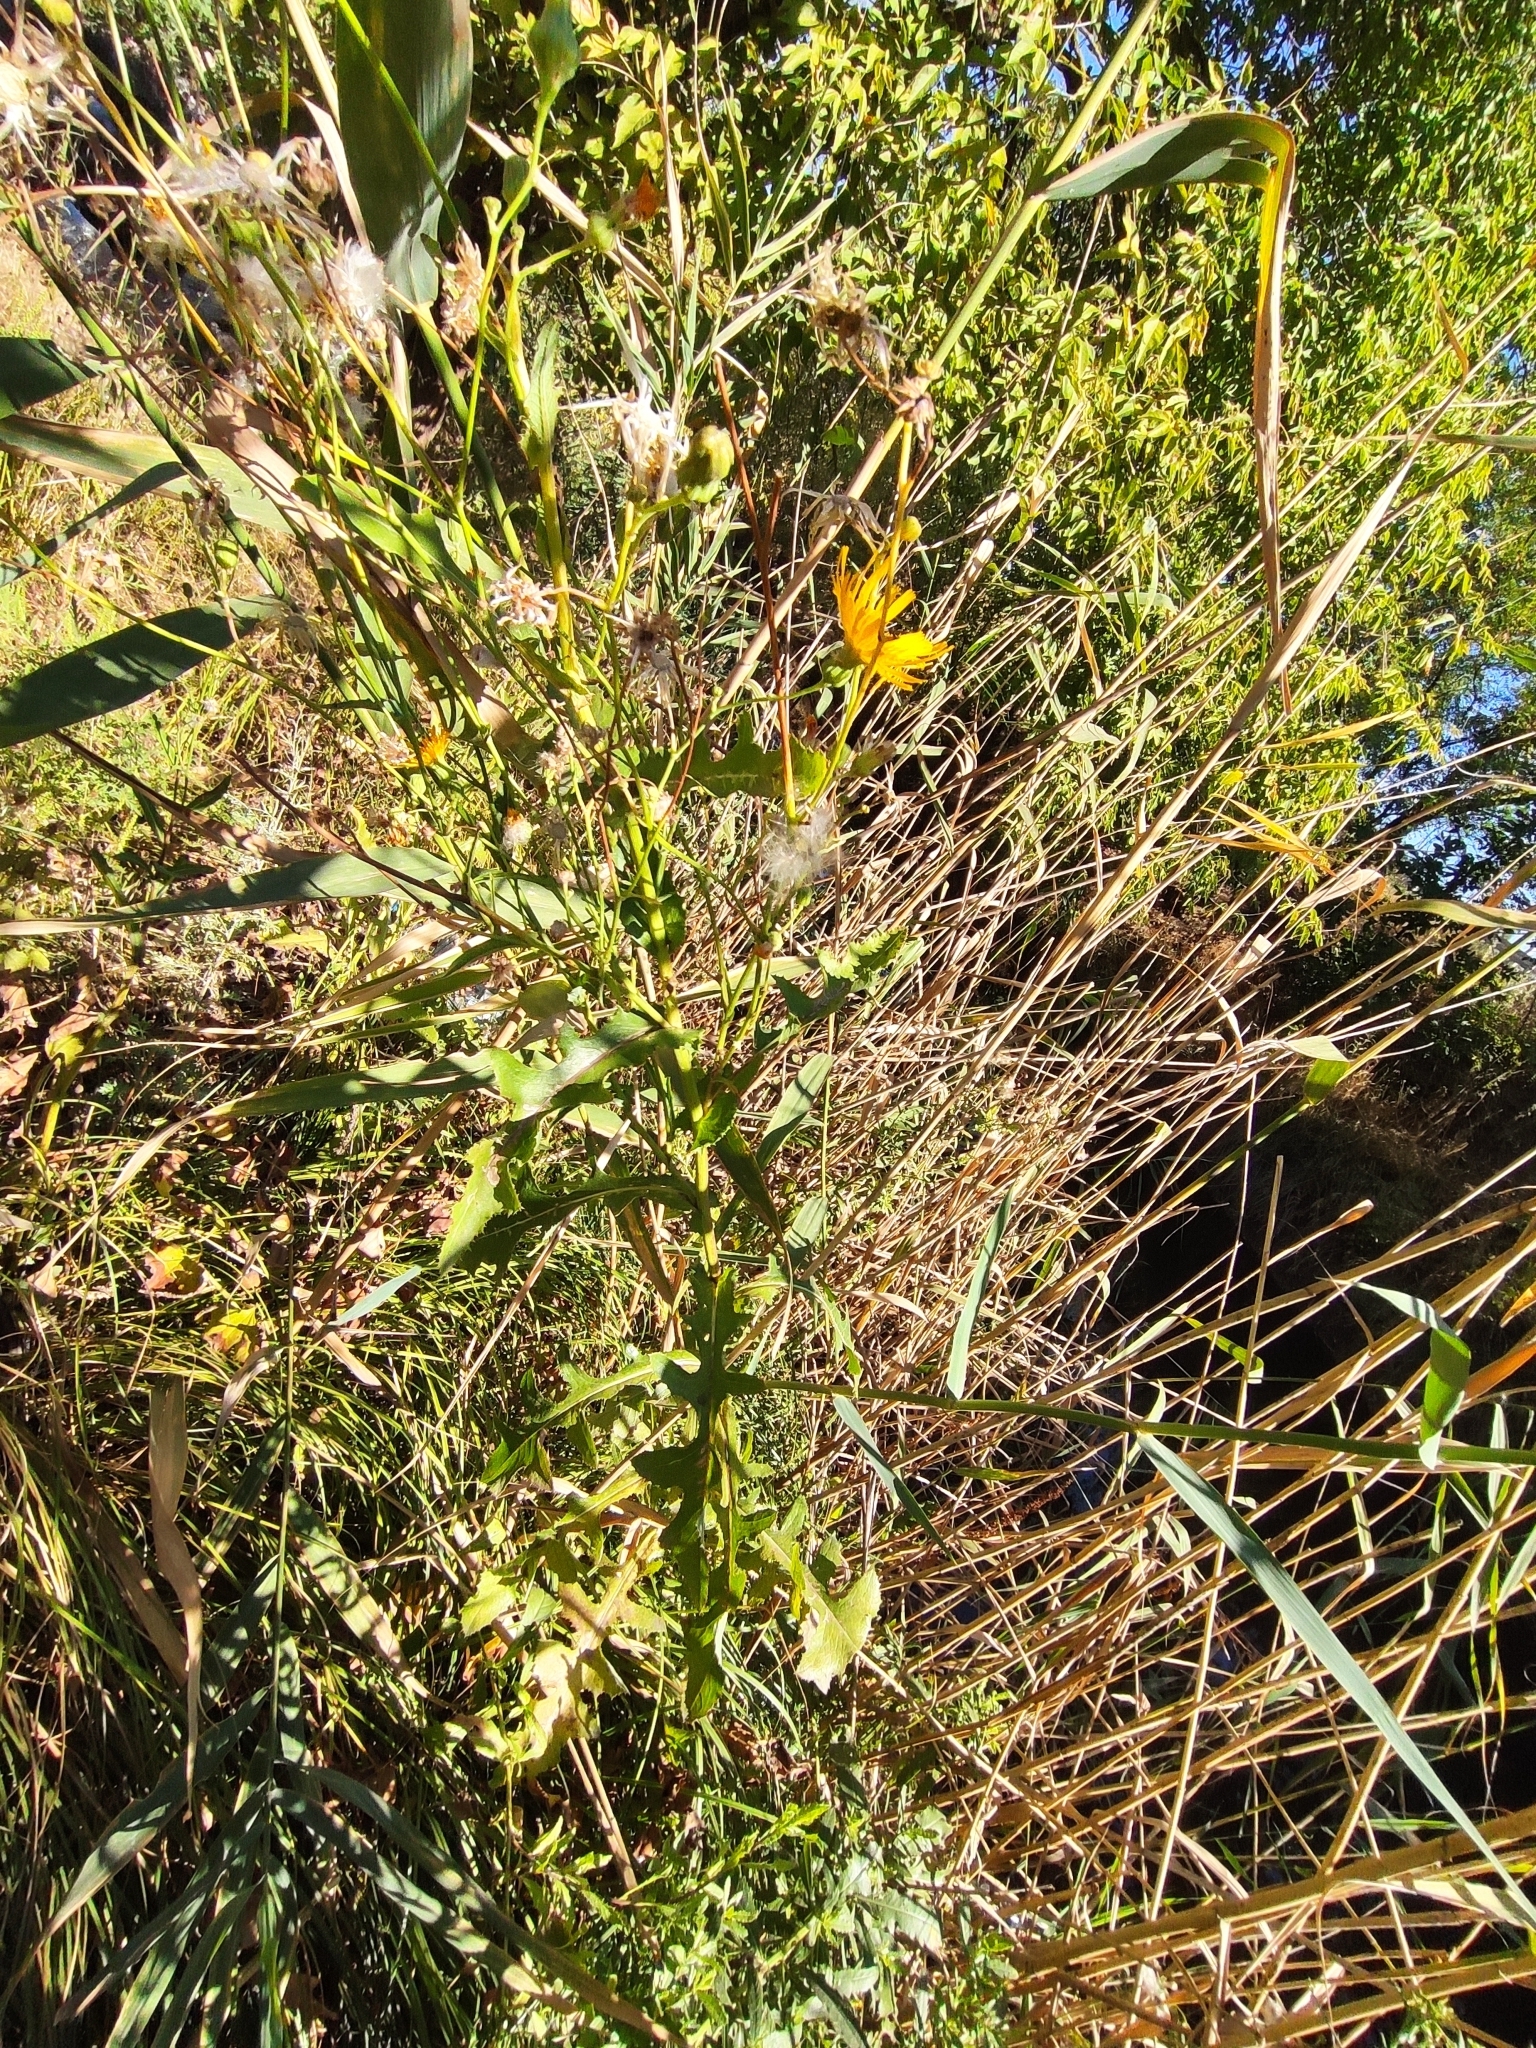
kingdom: Plantae
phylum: Tracheophyta
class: Magnoliopsida
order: Asterales
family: Asteraceae
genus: Sonchus
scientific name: Sonchus arvensis
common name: Perennial sow-thistle
